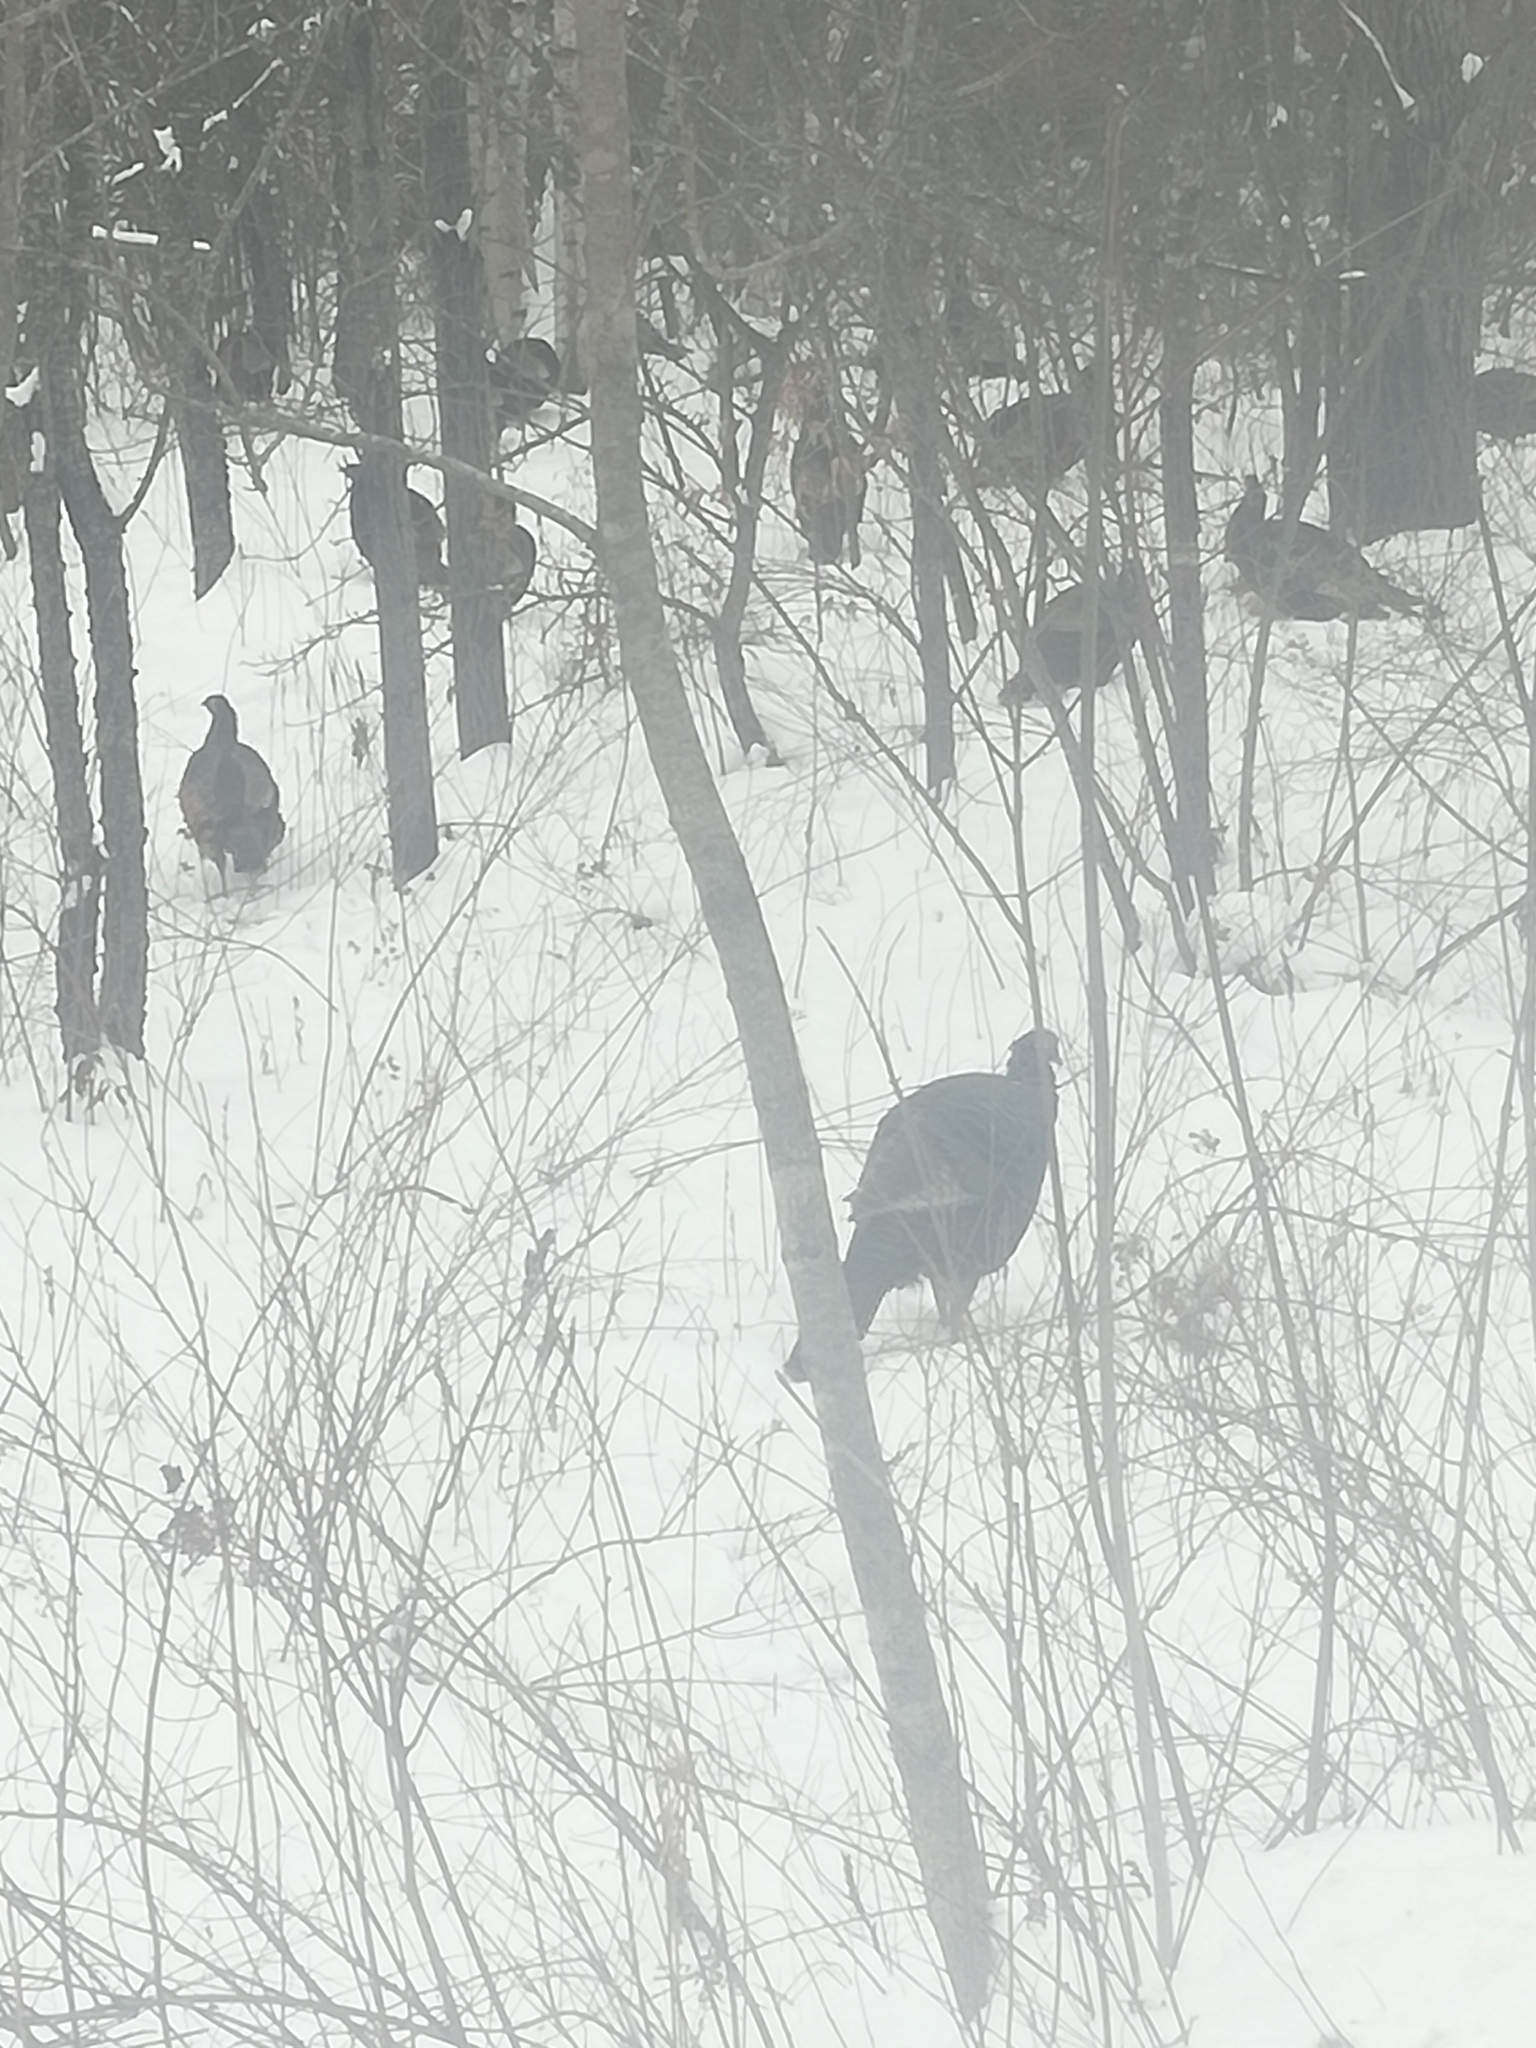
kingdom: Animalia
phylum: Chordata
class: Aves
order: Galliformes
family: Phasianidae
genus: Meleagris
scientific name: Meleagris gallopavo
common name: Wild turkey
